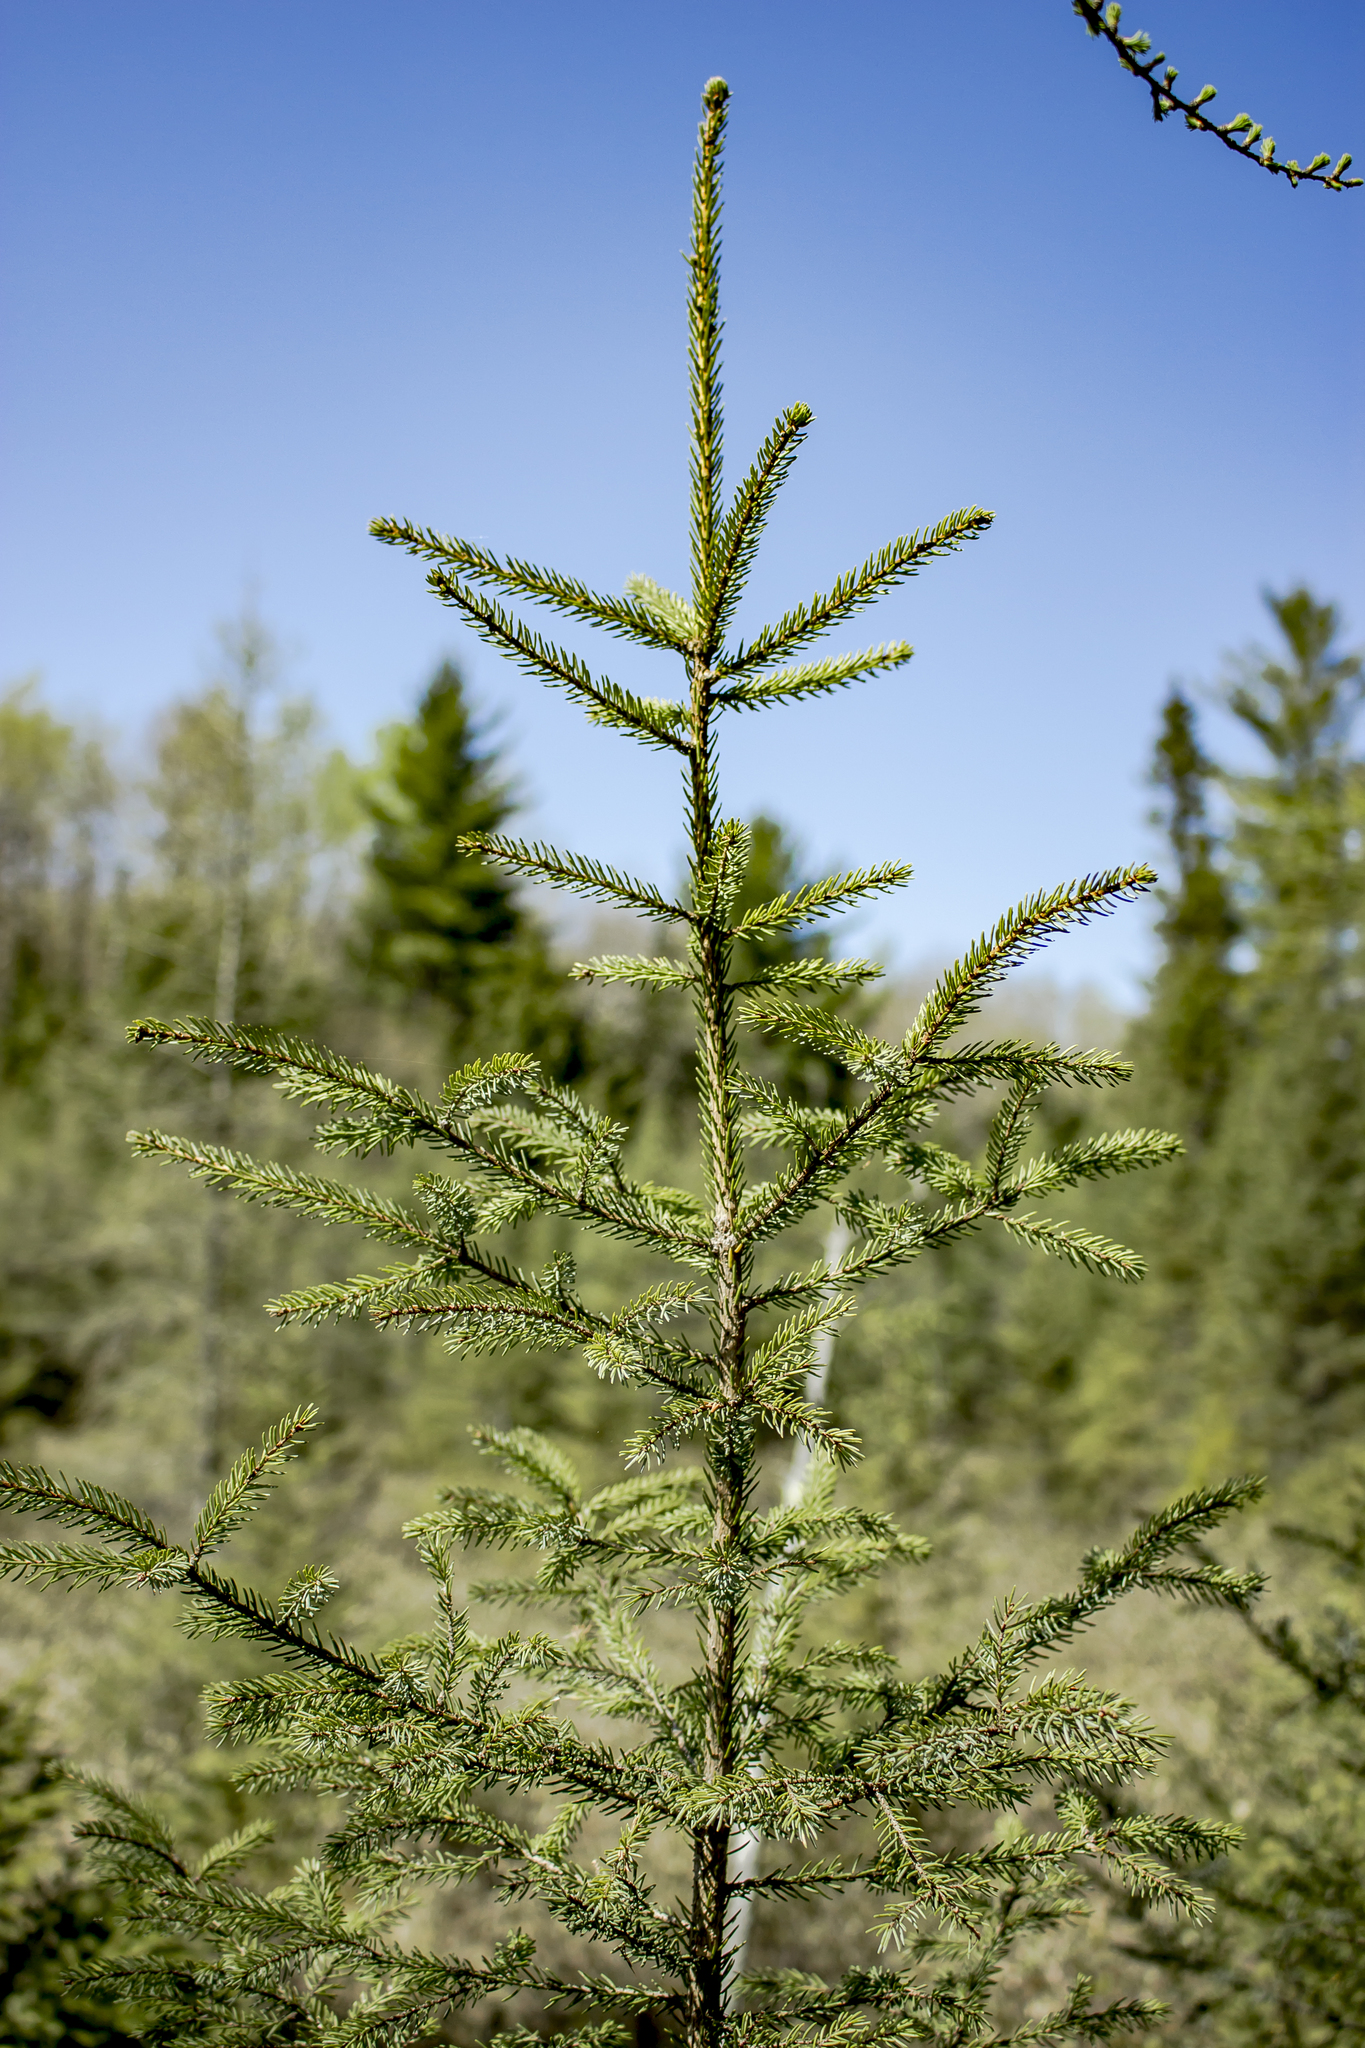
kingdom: Plantae
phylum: Tracheophyta
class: Pinopsida
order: Pinales
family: Pinaceae
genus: Picea
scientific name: Picea mariana
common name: Black spruce
